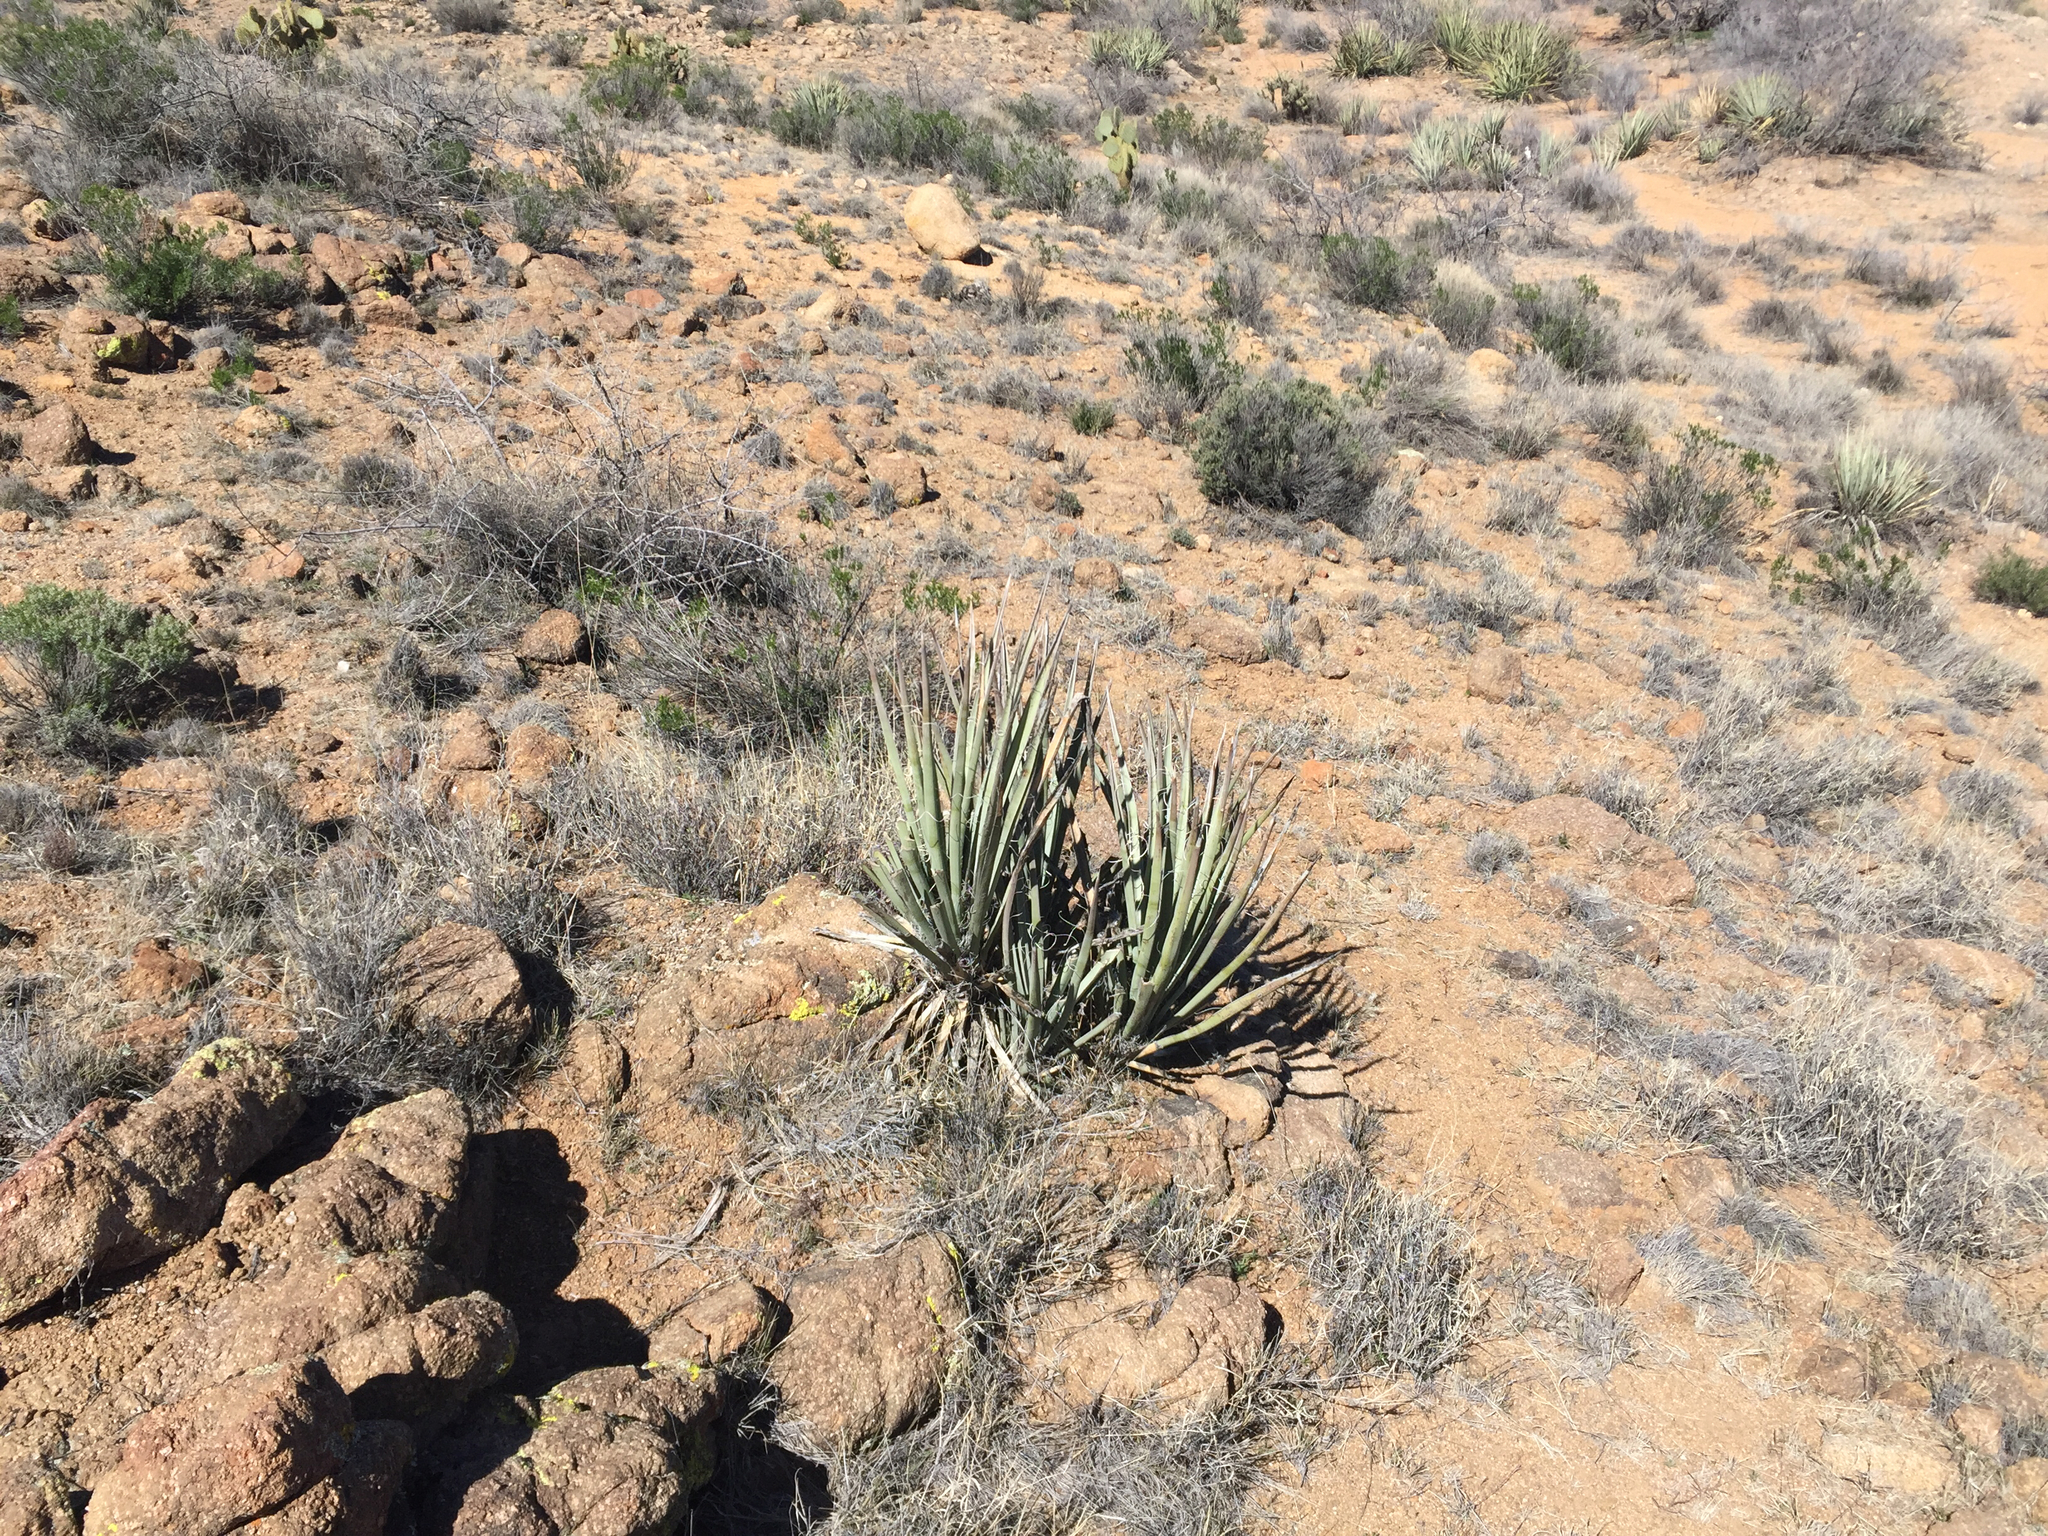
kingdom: Plantae
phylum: Tracheophyta
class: Liliopsida
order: Asparagales
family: Asparagaceae
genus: Yucca
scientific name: Yucca baccata
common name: Banana yucca
